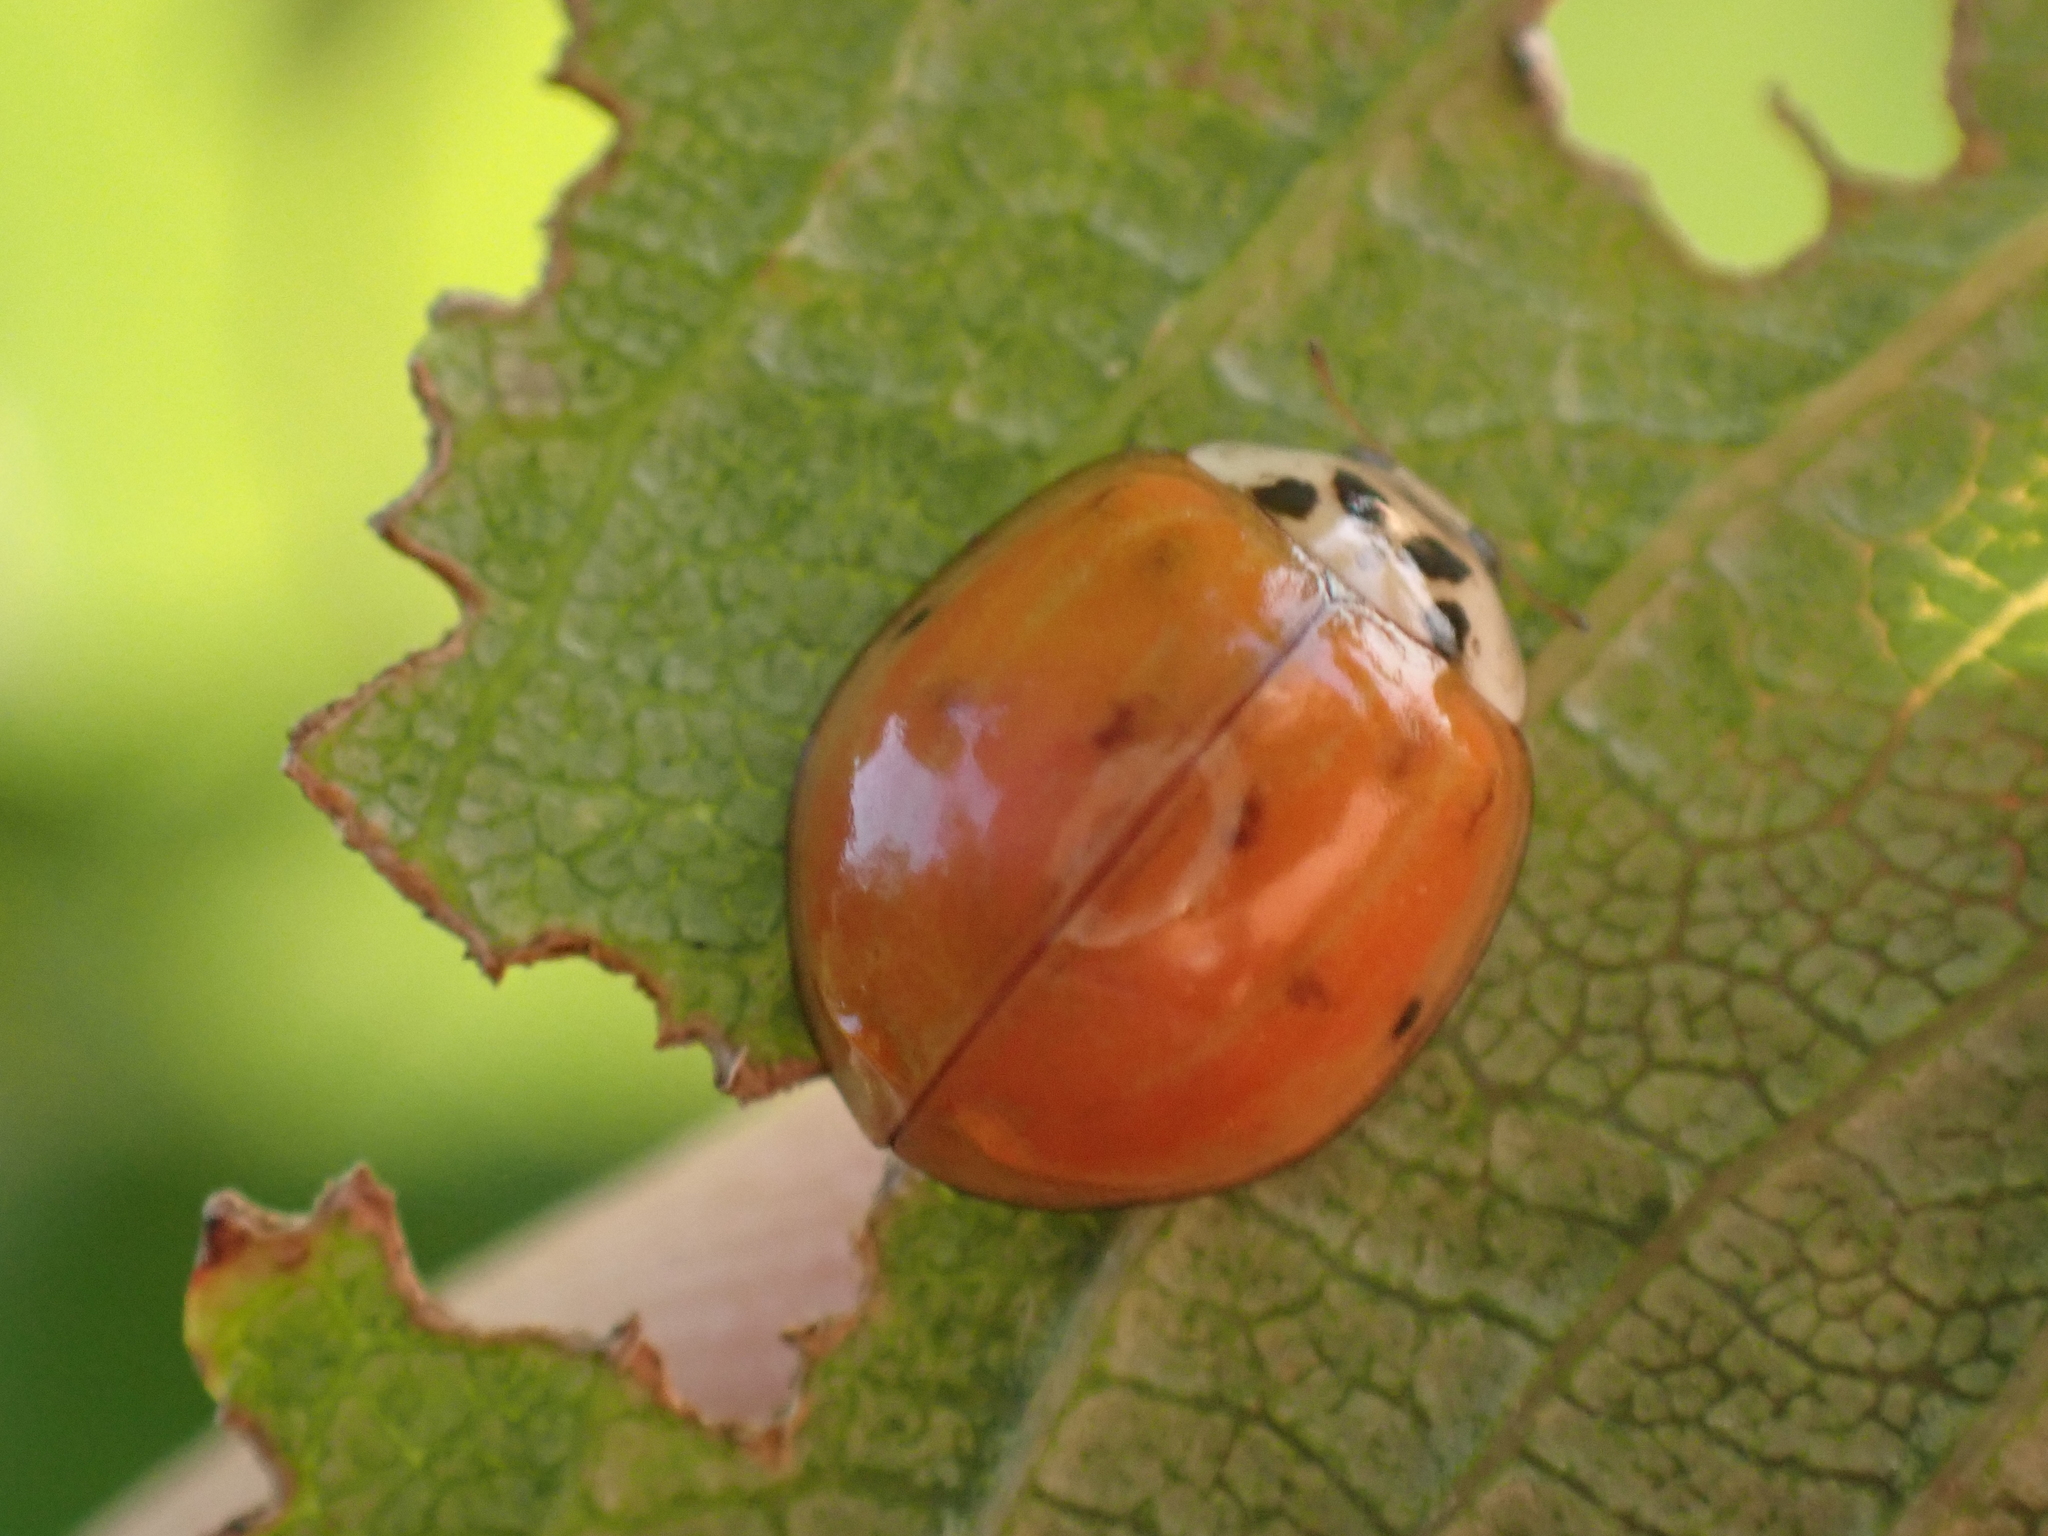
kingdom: Animalia
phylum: Arthropoda
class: Insecta
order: Coleoptera
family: Coccinellidae
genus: Harmonia
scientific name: Harmonia axyridis
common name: Harlequin ladybird
